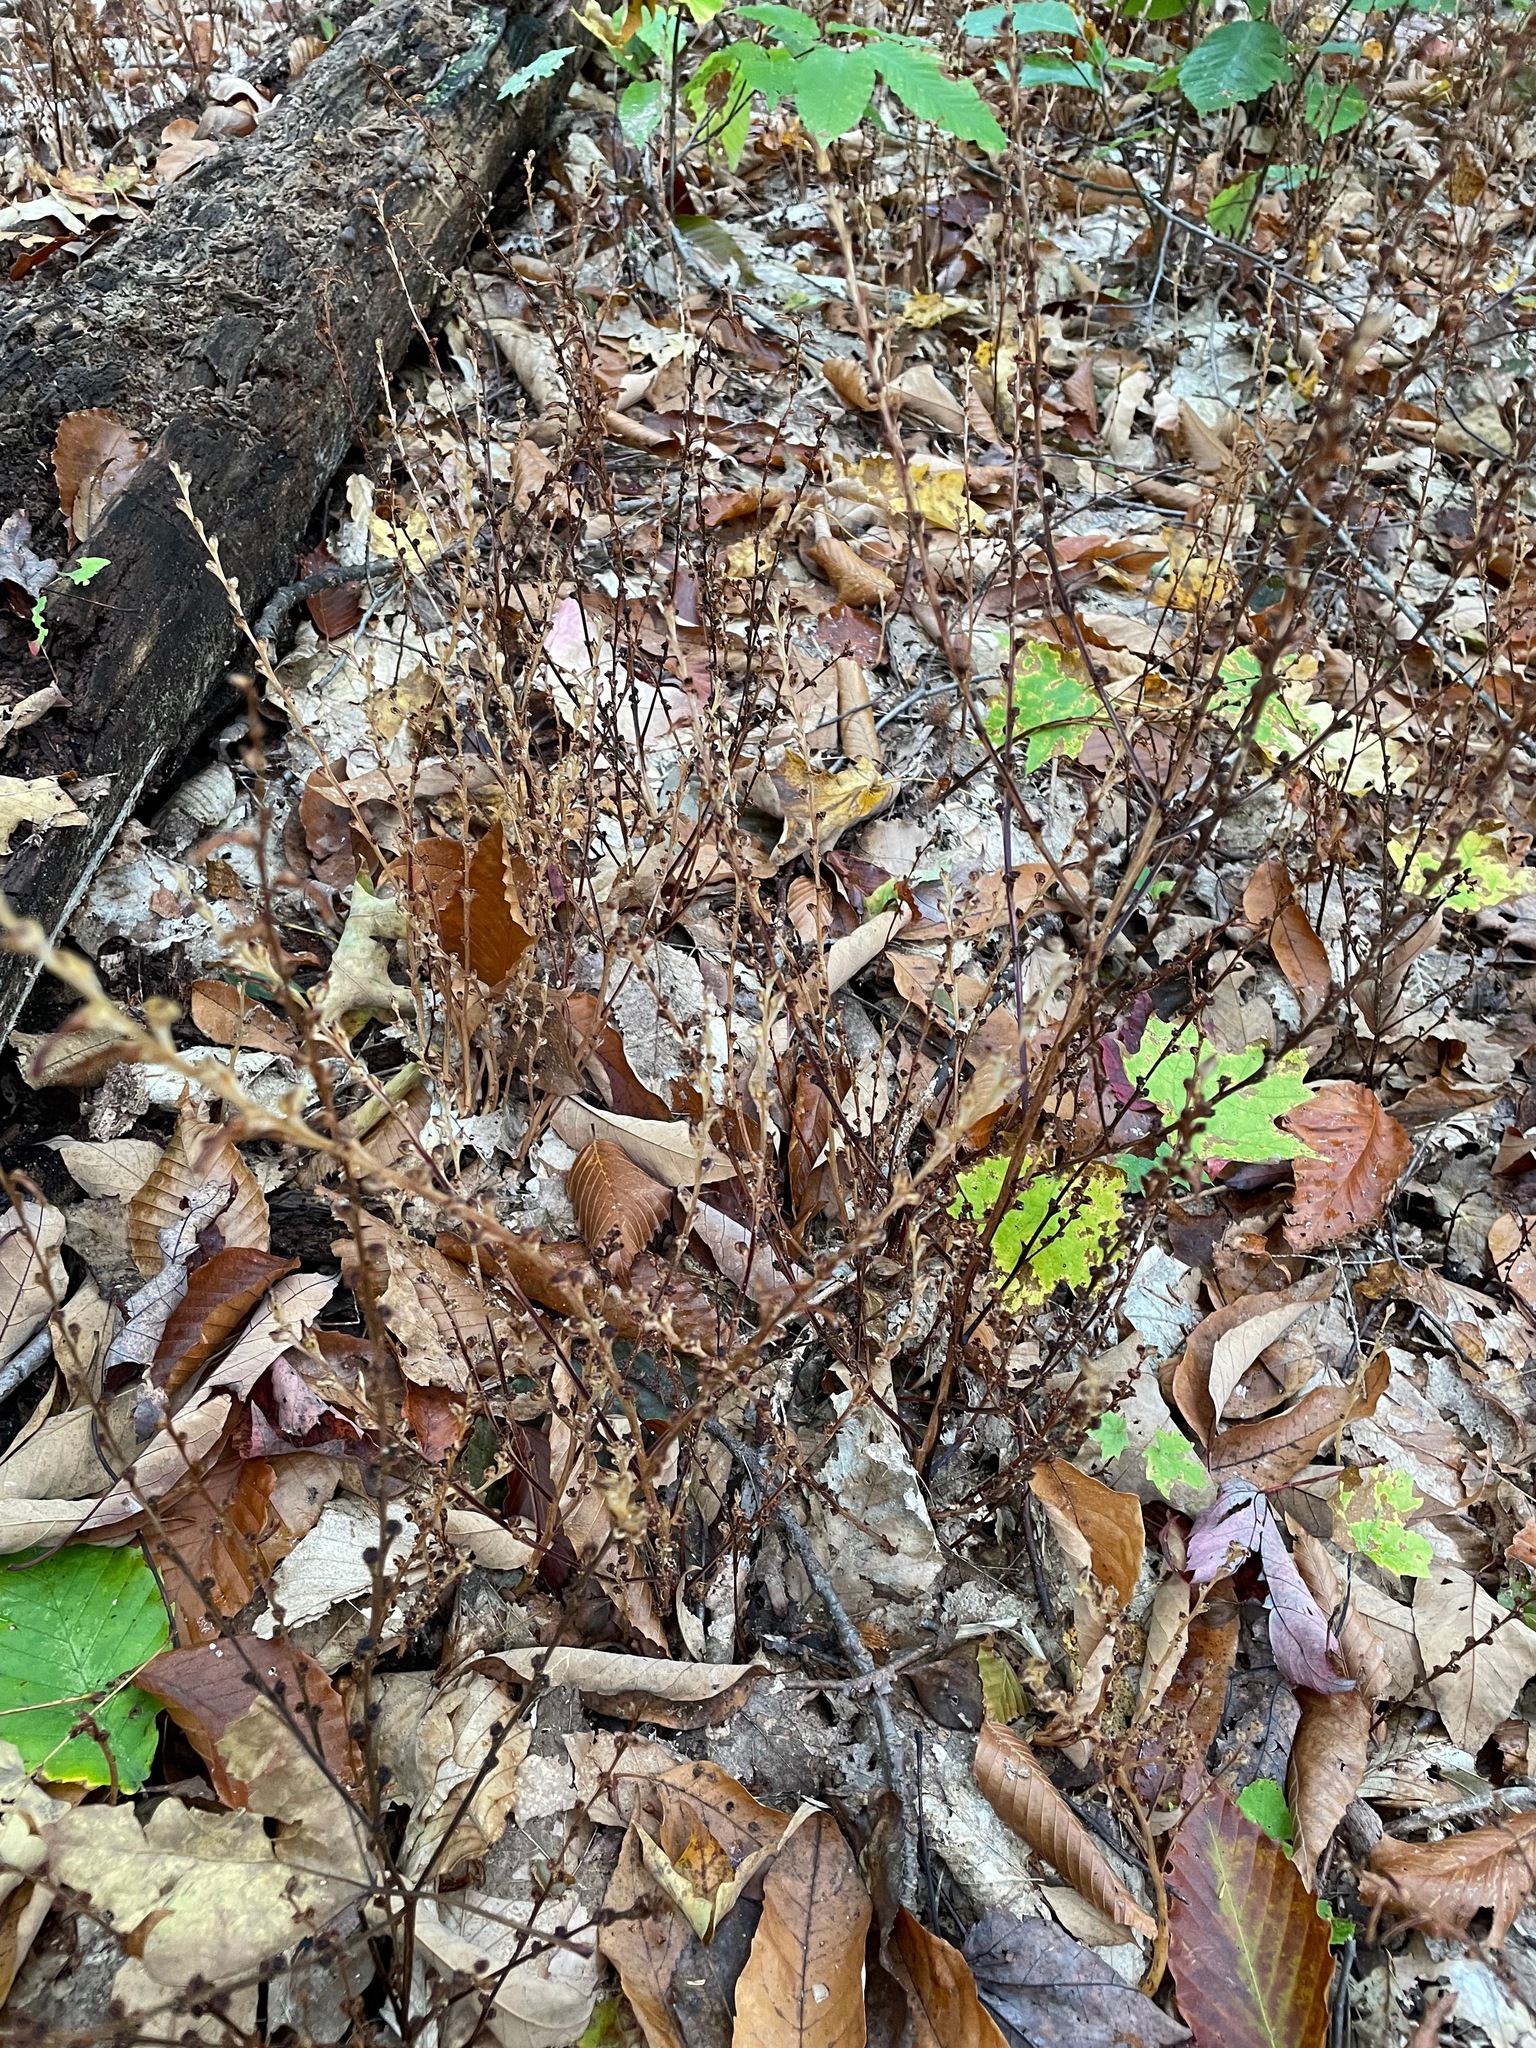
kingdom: Plantae
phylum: Tracheophyta
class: Magnoliopsida
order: Lamiales
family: Orobanchaceae
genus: Epifagus
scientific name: Epifagus virginiana
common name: Beechdrops
